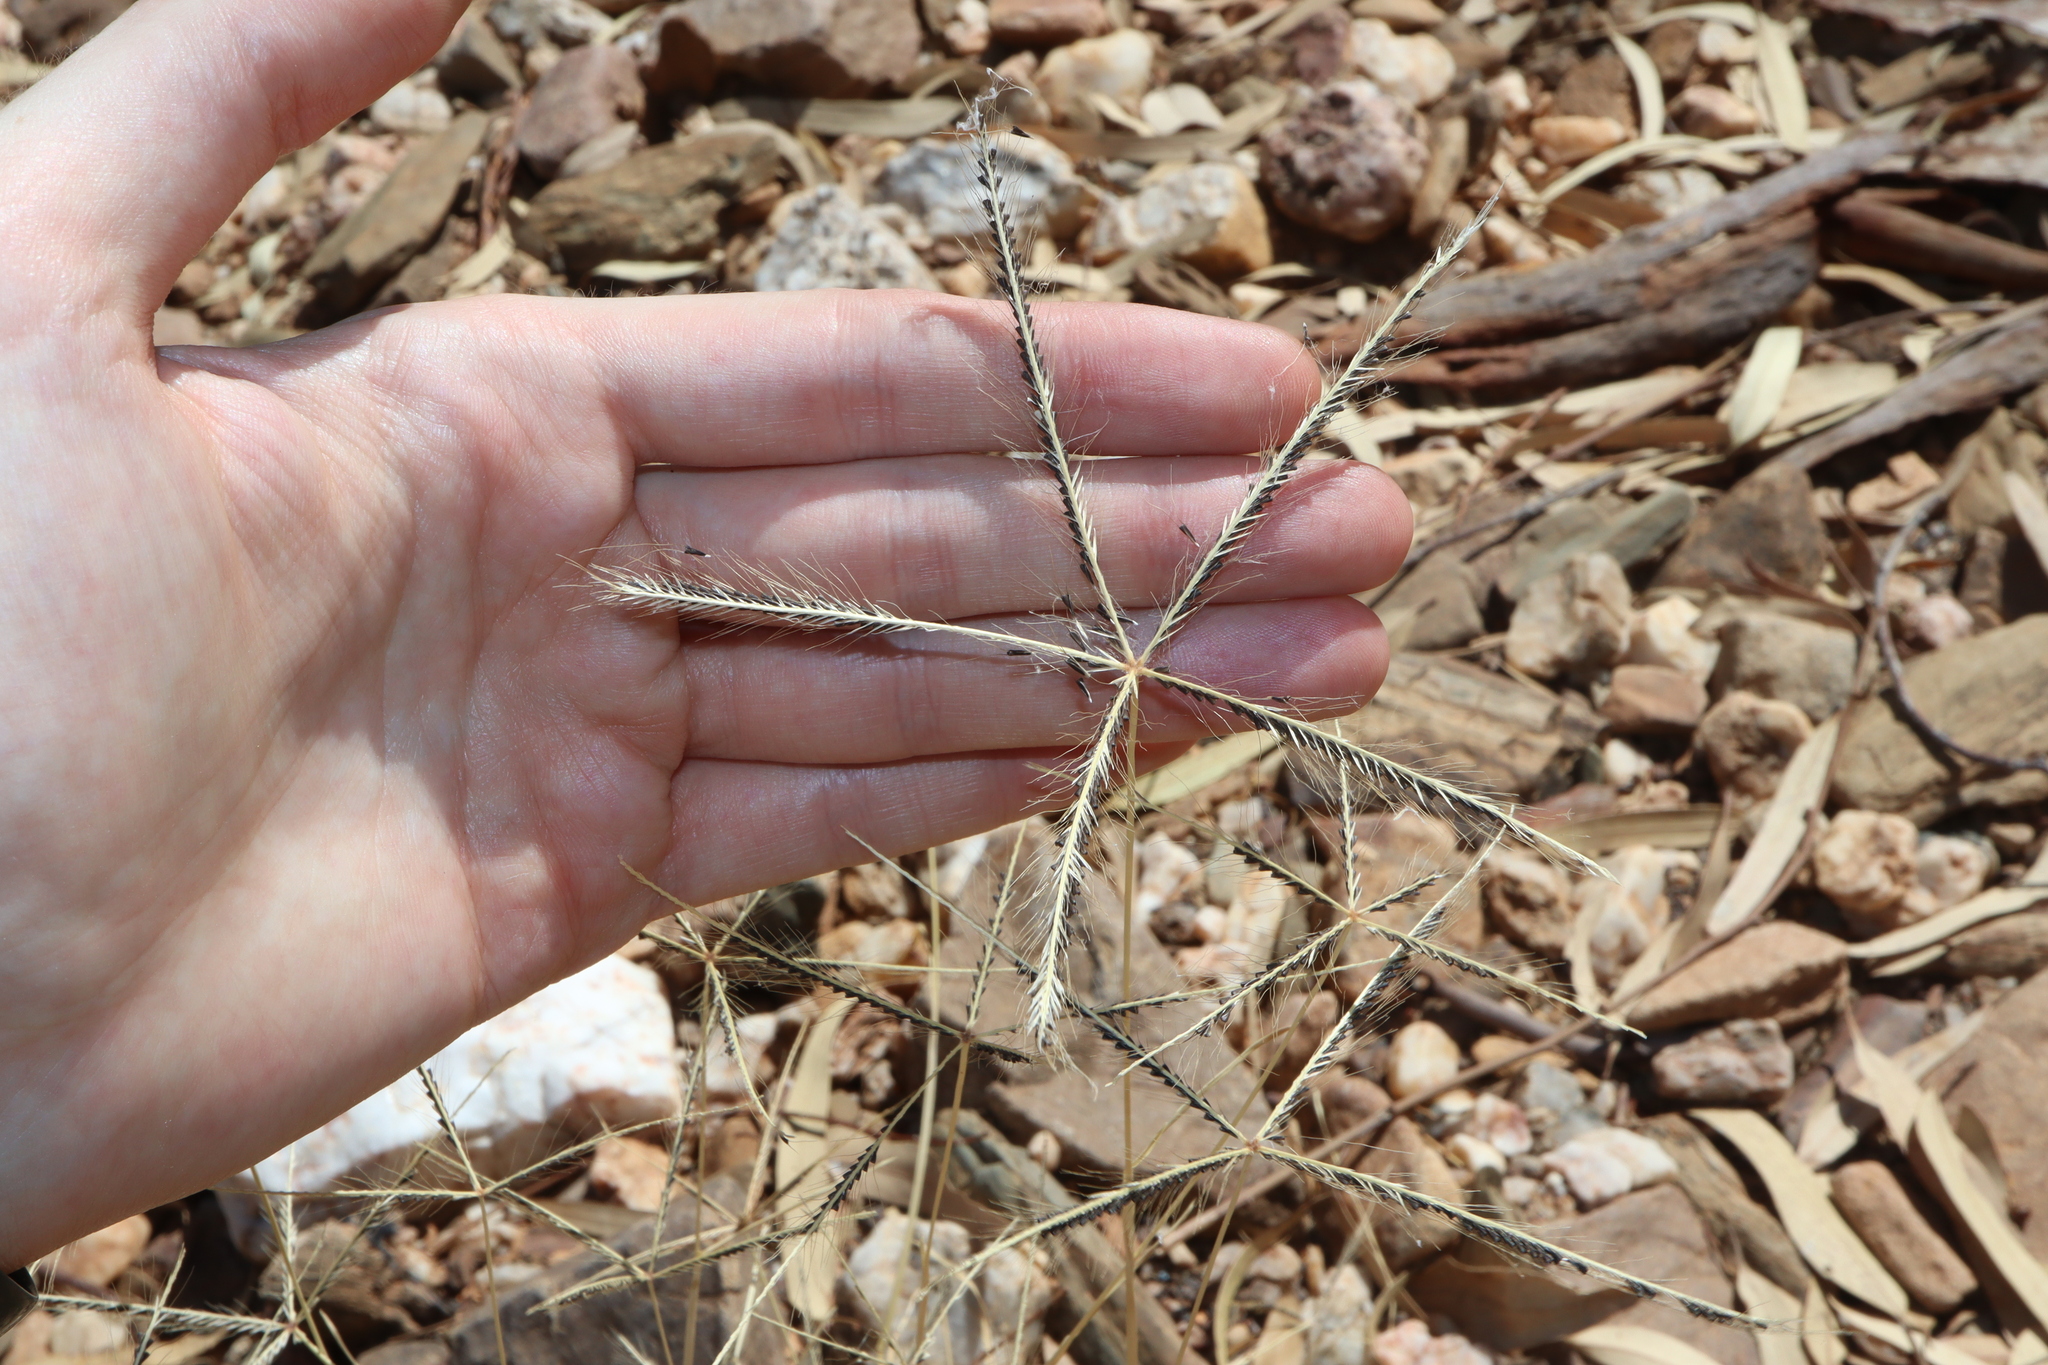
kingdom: Plantae
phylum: Tracheophyta
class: Liliopsida
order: Poales
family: Poaceae
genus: Chloris
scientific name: Chloris truncata
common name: Windmill-grass
